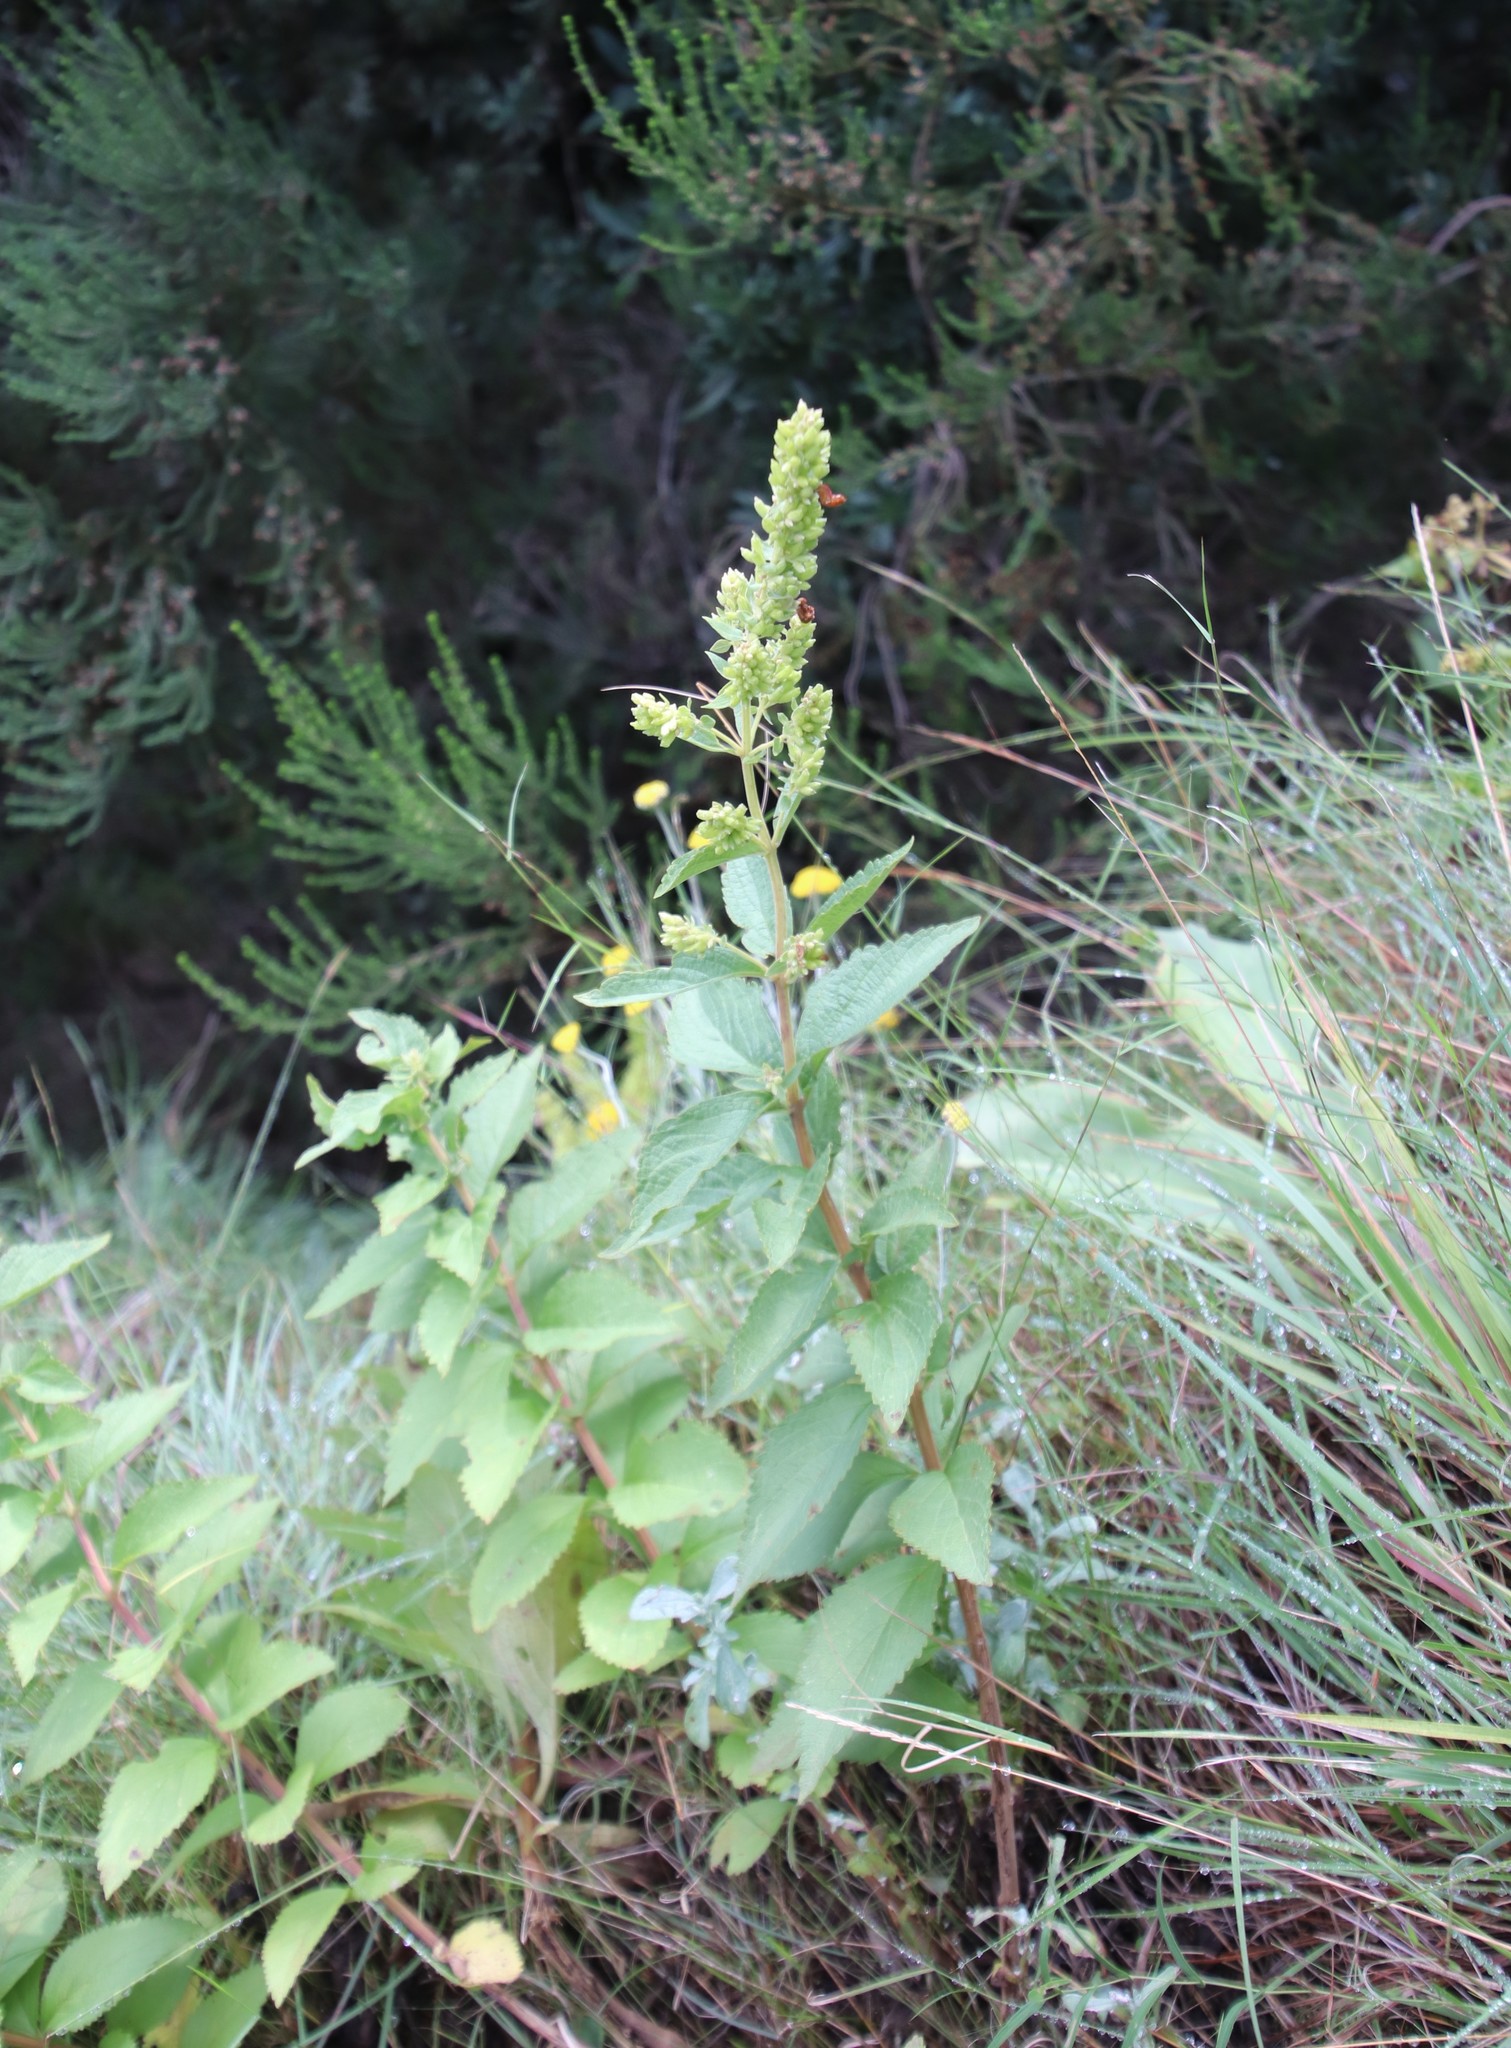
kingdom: Plantae
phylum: Tracheophyta
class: Magnoliopsida
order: Lamiales
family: Lamiaceae
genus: Coleus
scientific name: Coleus calycinus
